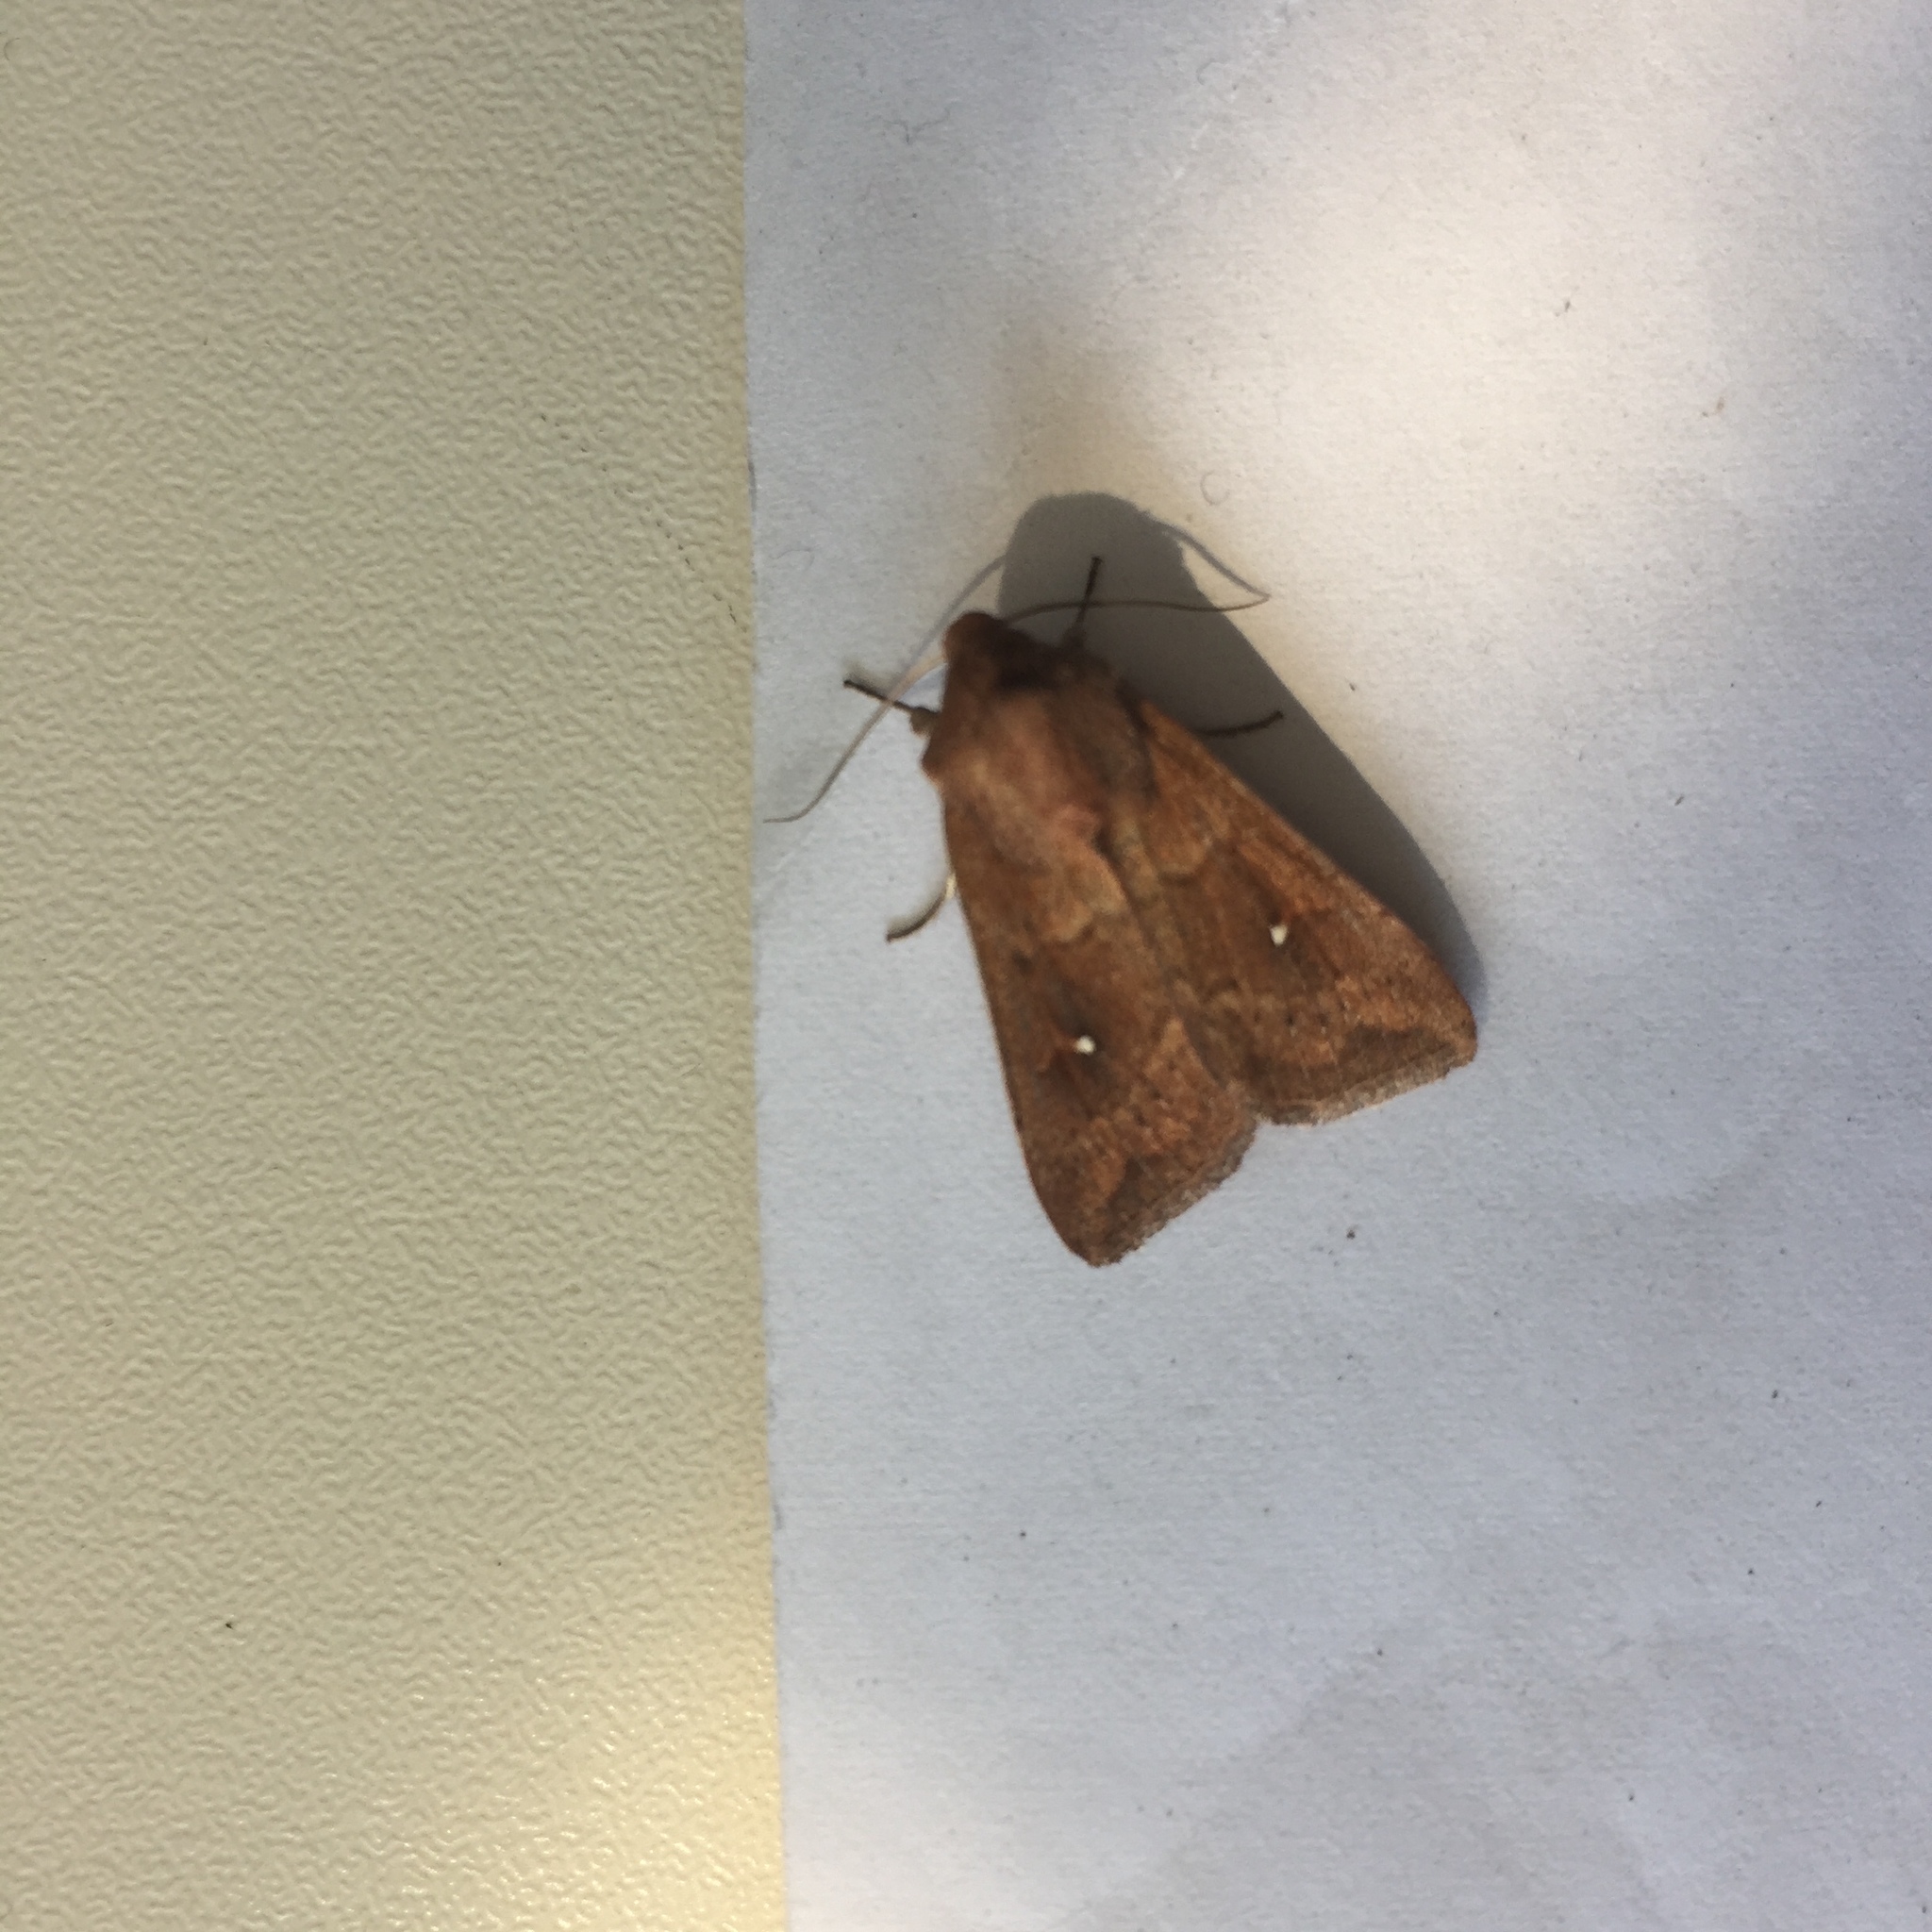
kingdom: Animalia
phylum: Arthropoda
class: Insecta
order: Lepidoptera
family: Noctuidae
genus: Mythimna
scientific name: Mythimna albipuncta
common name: White-point
